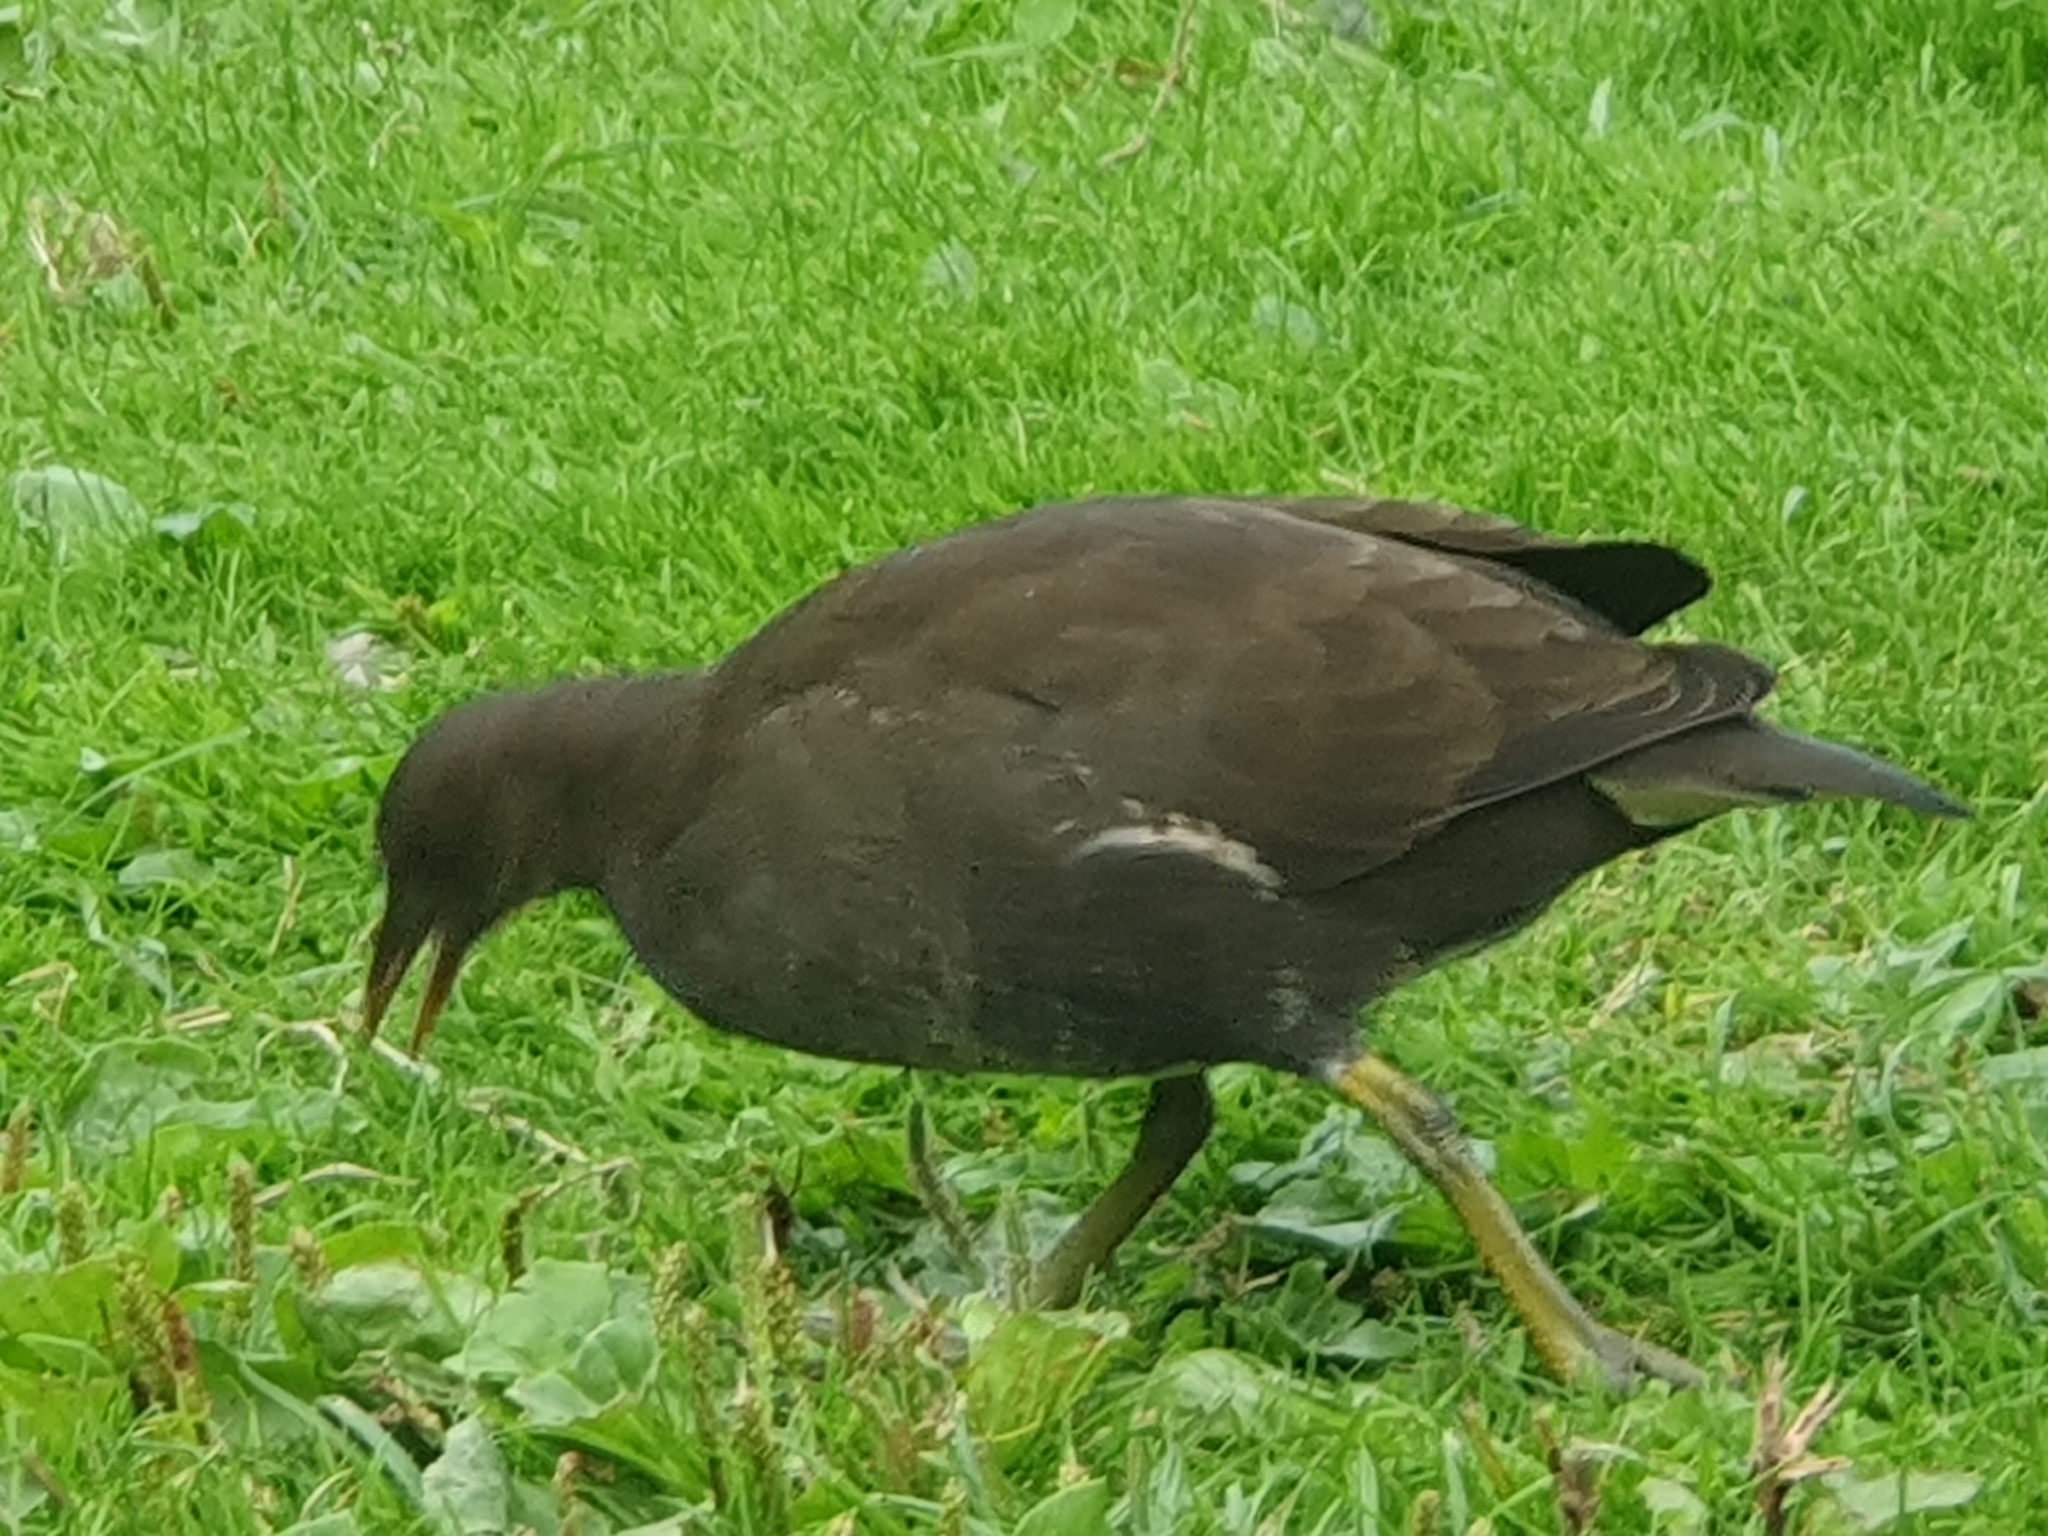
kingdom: Animalia
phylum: Chordata
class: Aves
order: Gruiformes
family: Rallidae
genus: Gallinula
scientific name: Gallinula chloropus
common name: Common moorhen
